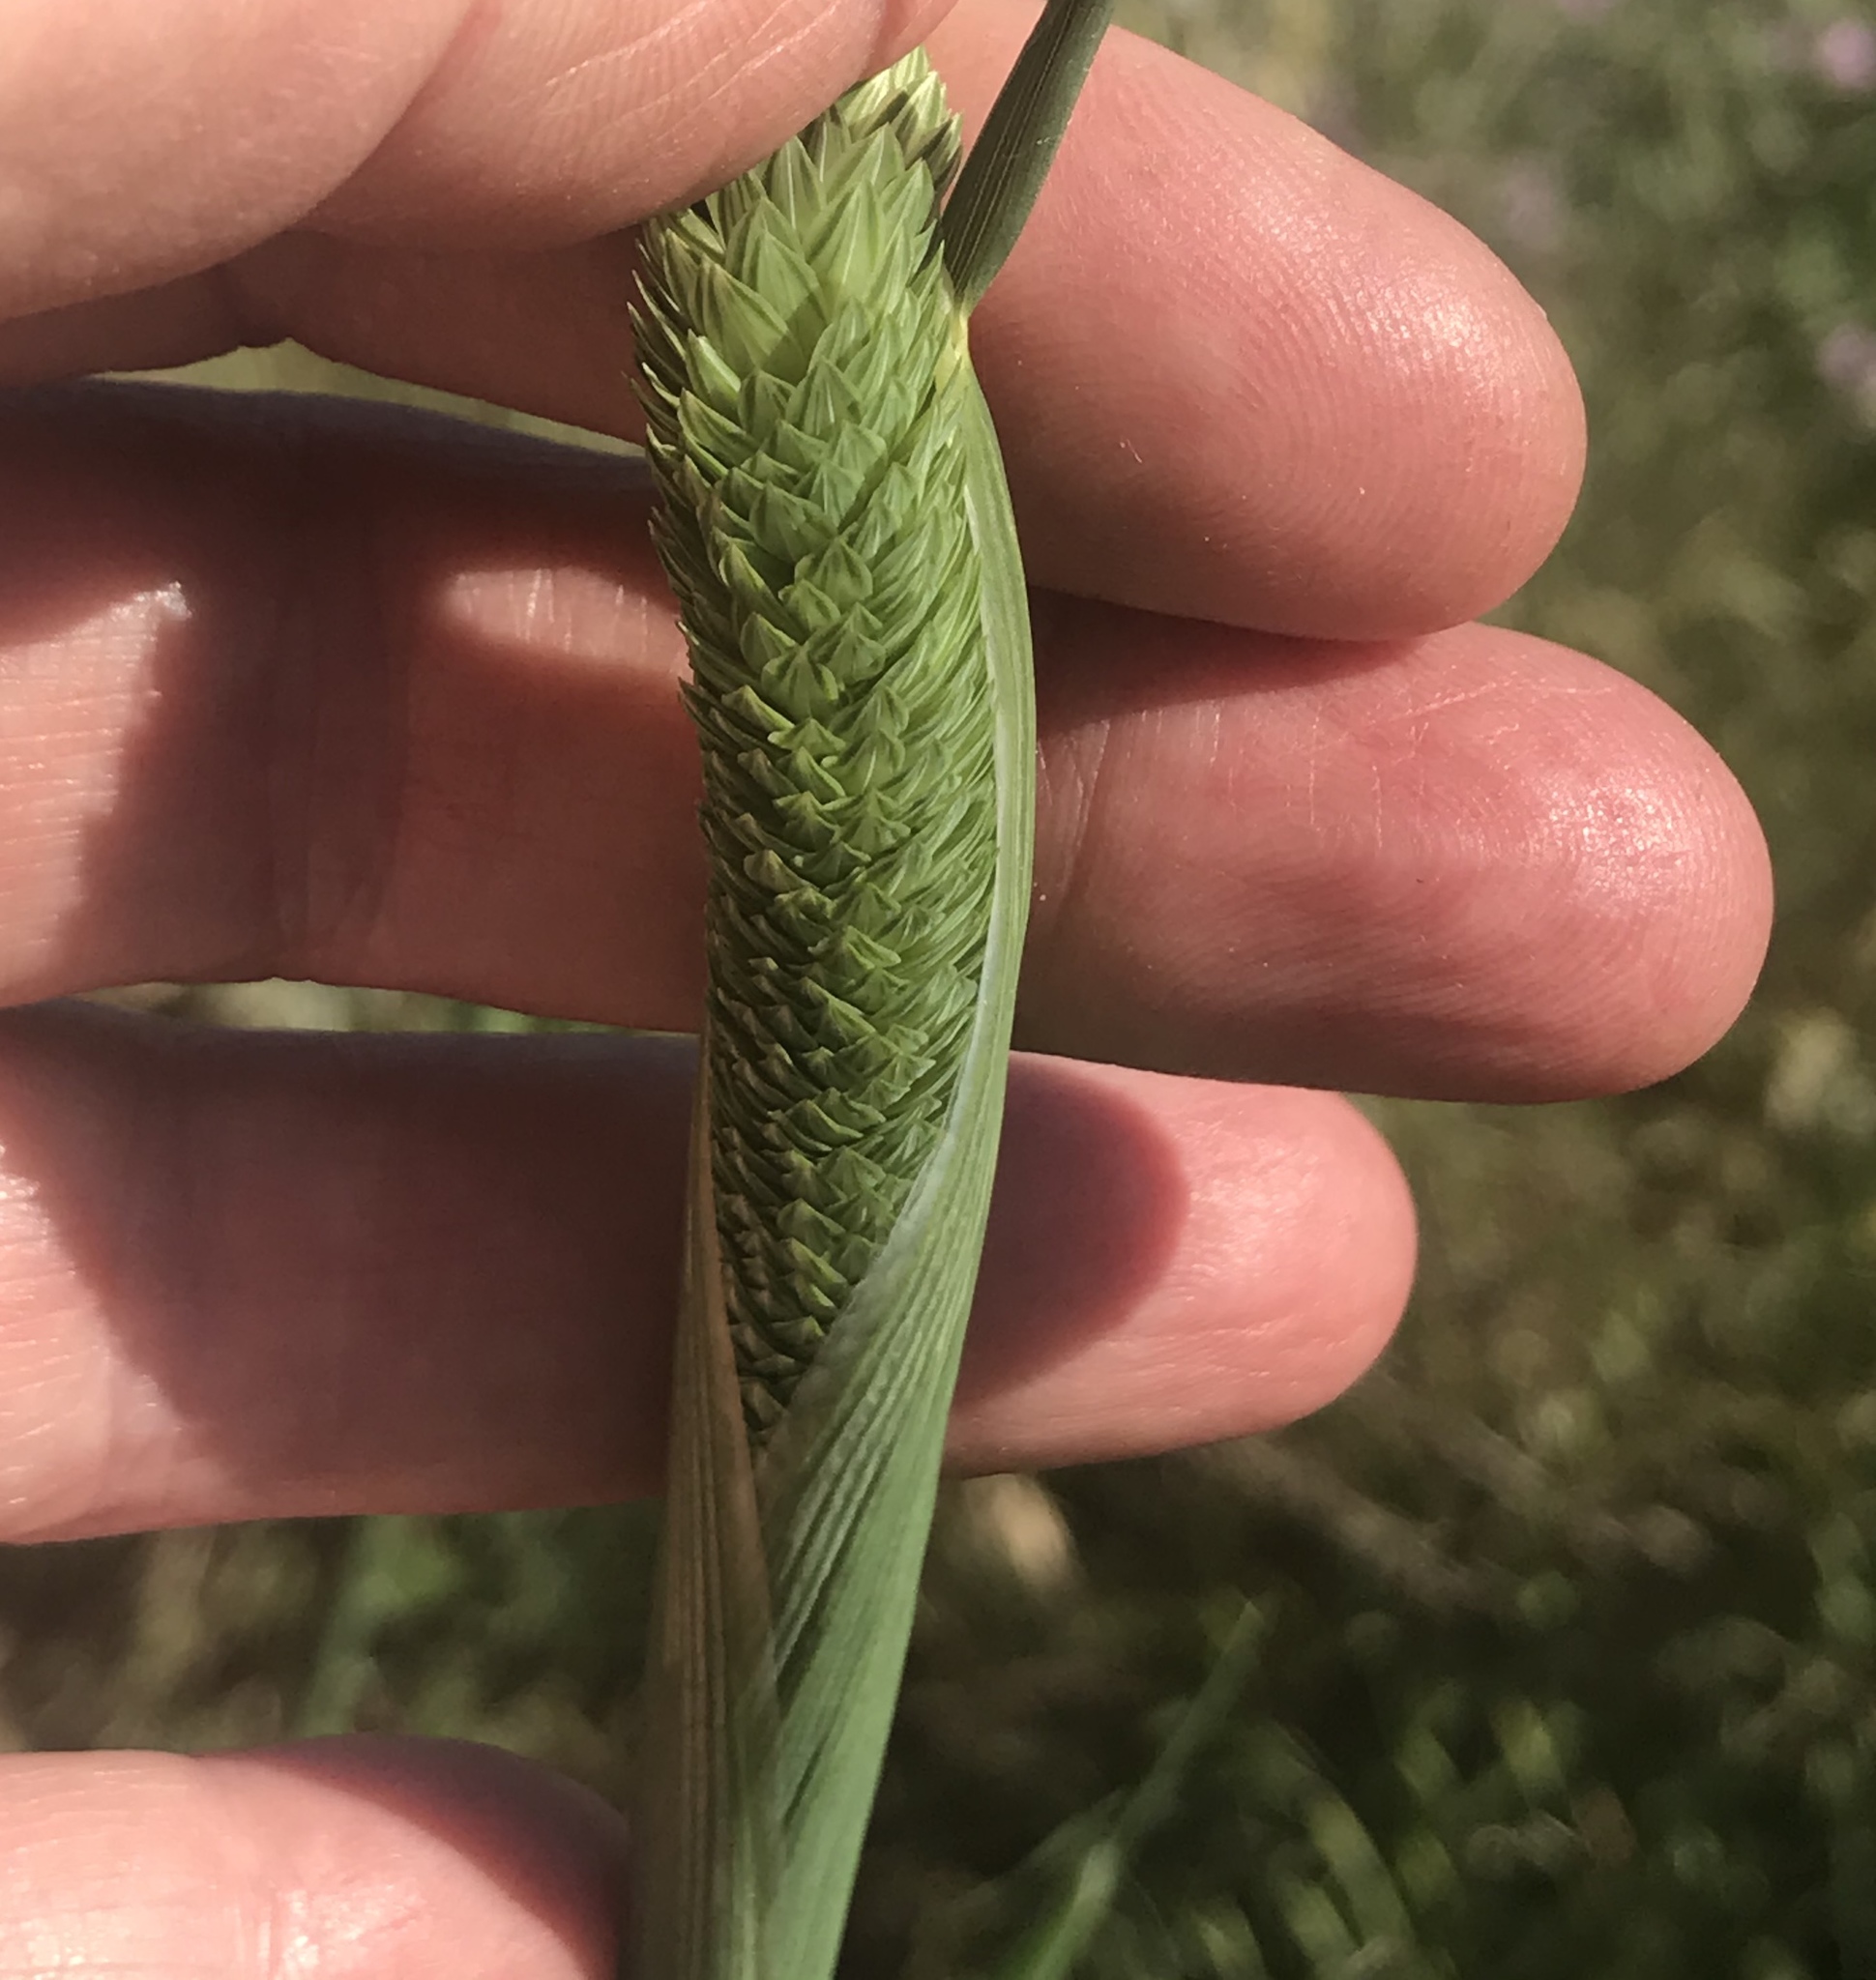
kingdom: Plantae
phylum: Tracheophyta
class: Liliopsida
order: Poales
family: Poaceae
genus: Phalaris
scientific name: Phalaris aquatica
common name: Bulbous canary-grass
